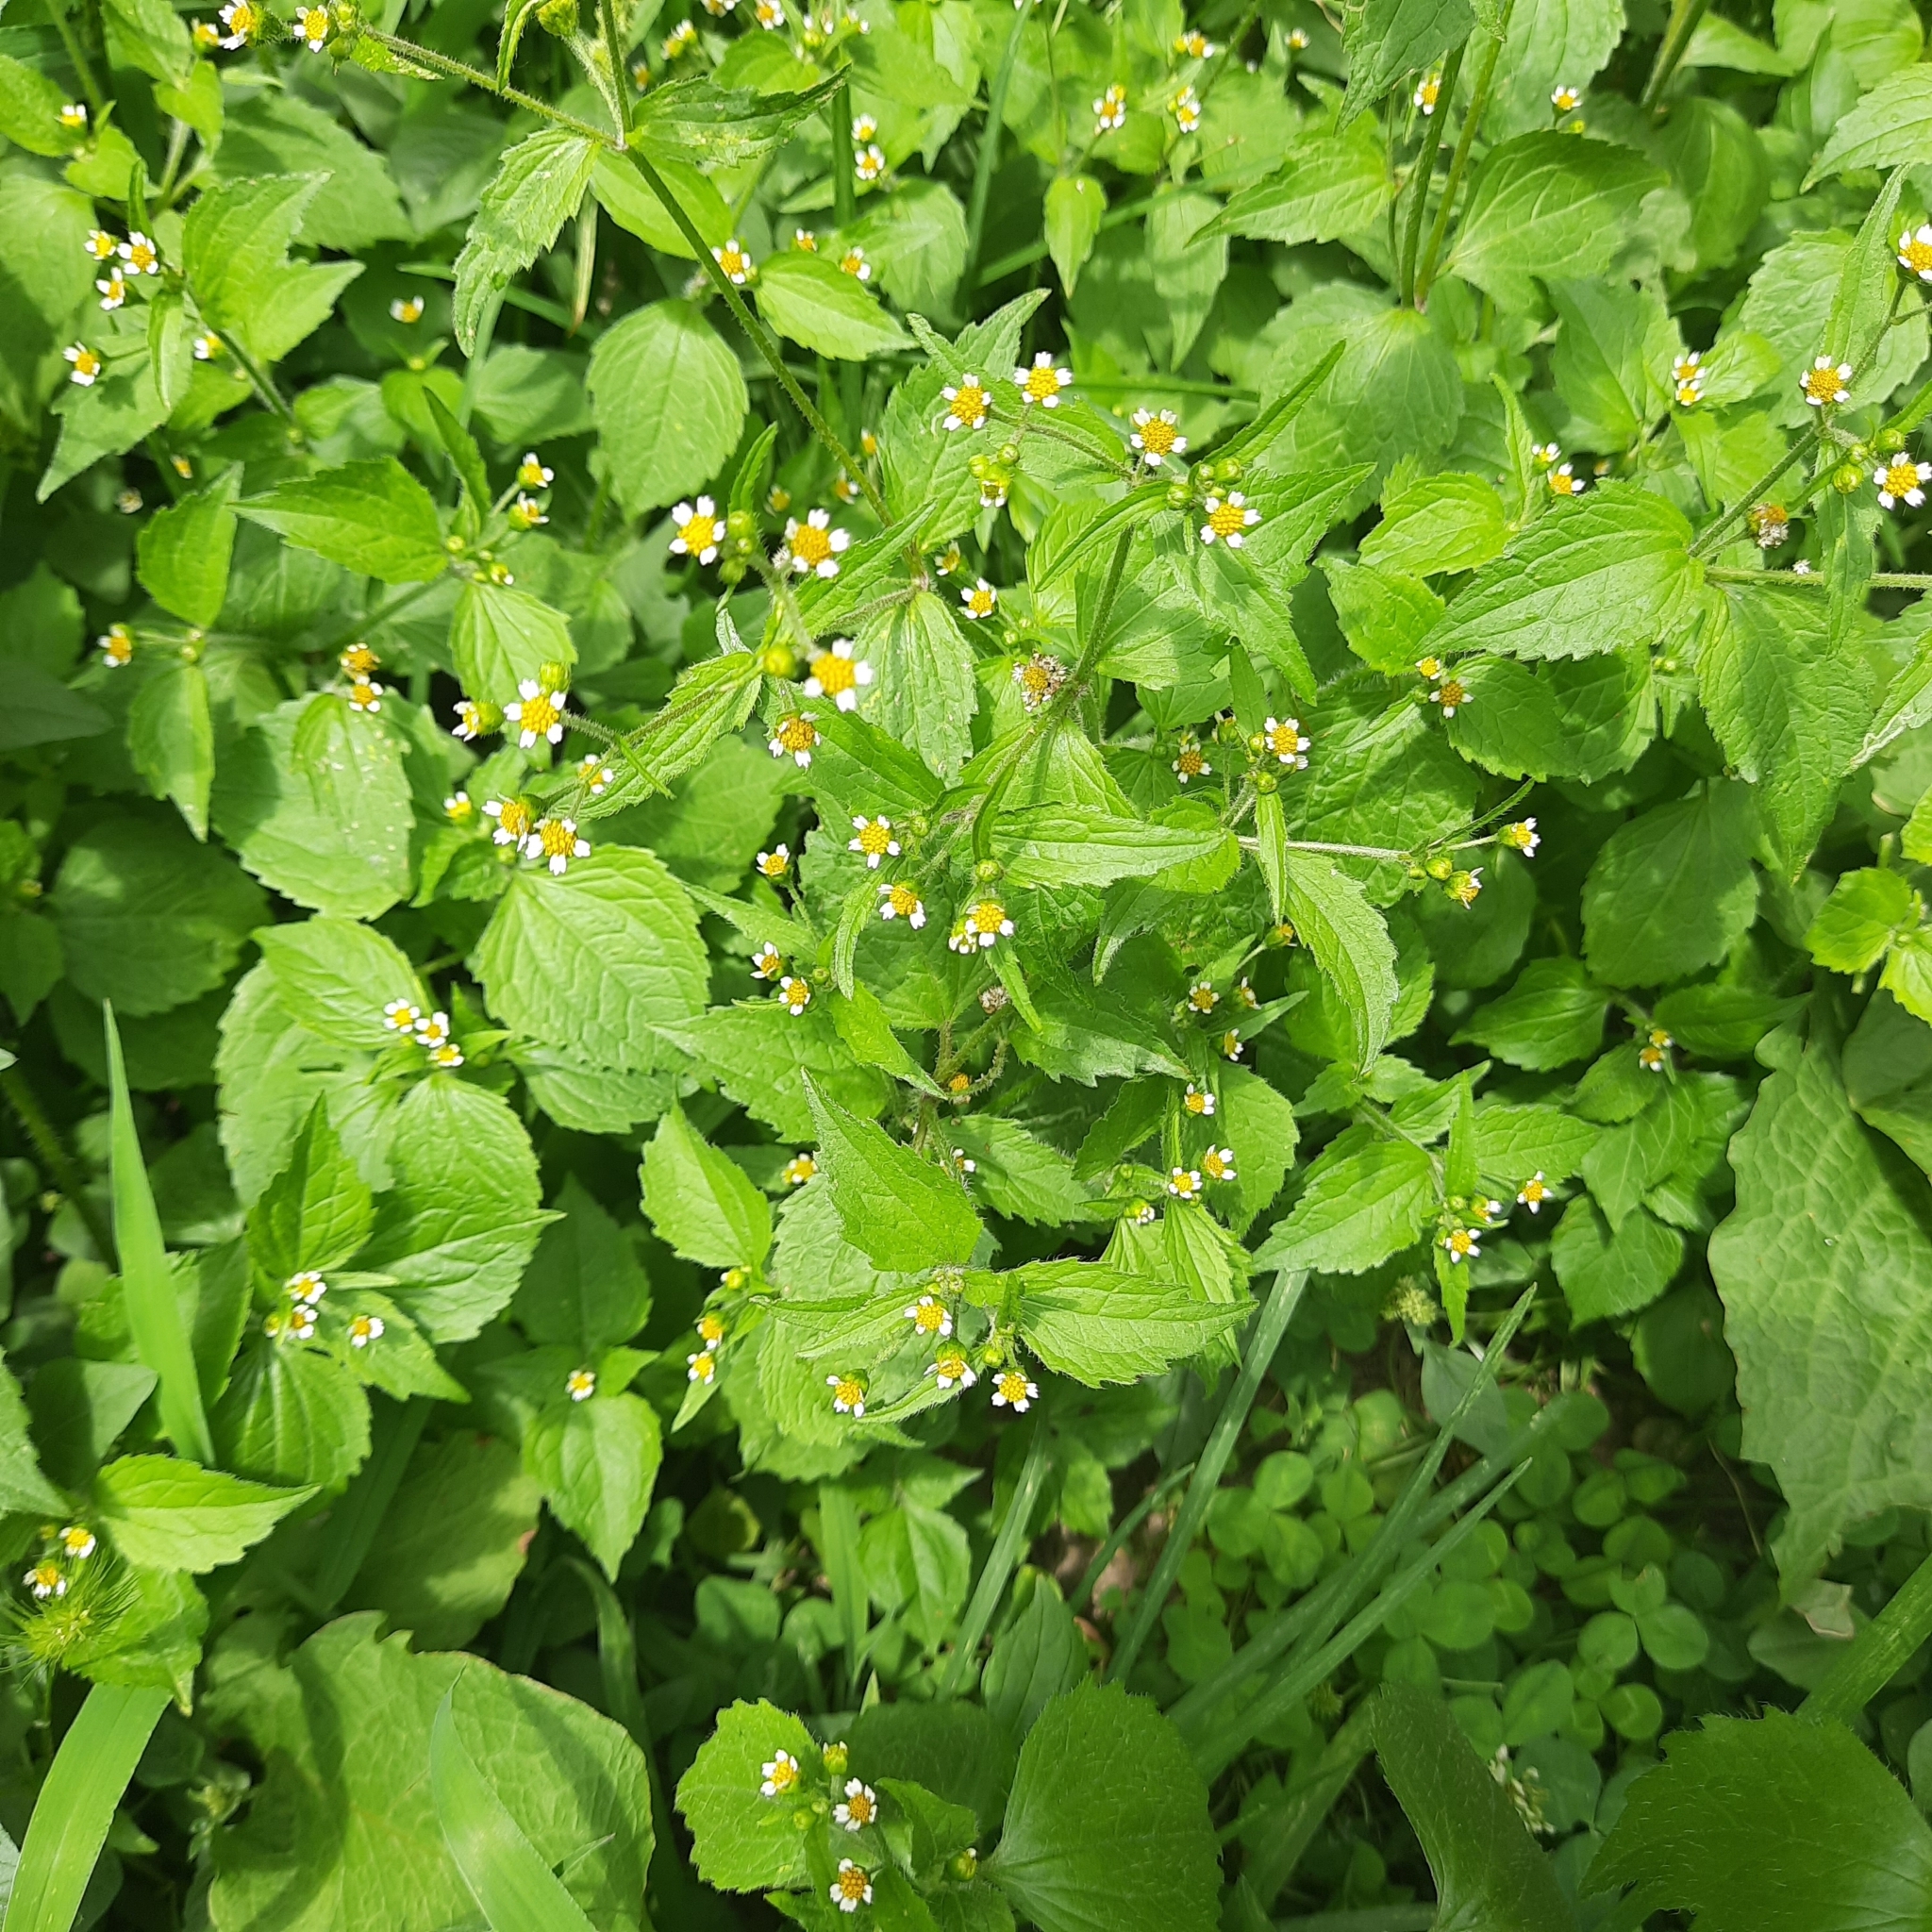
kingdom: Plantae
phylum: Tracheophyta
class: Magnoliopsida
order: Asterales
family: Asteraceae
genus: Galinsoga
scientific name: Galinsoga quadriradiata
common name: Shaggy soldier
